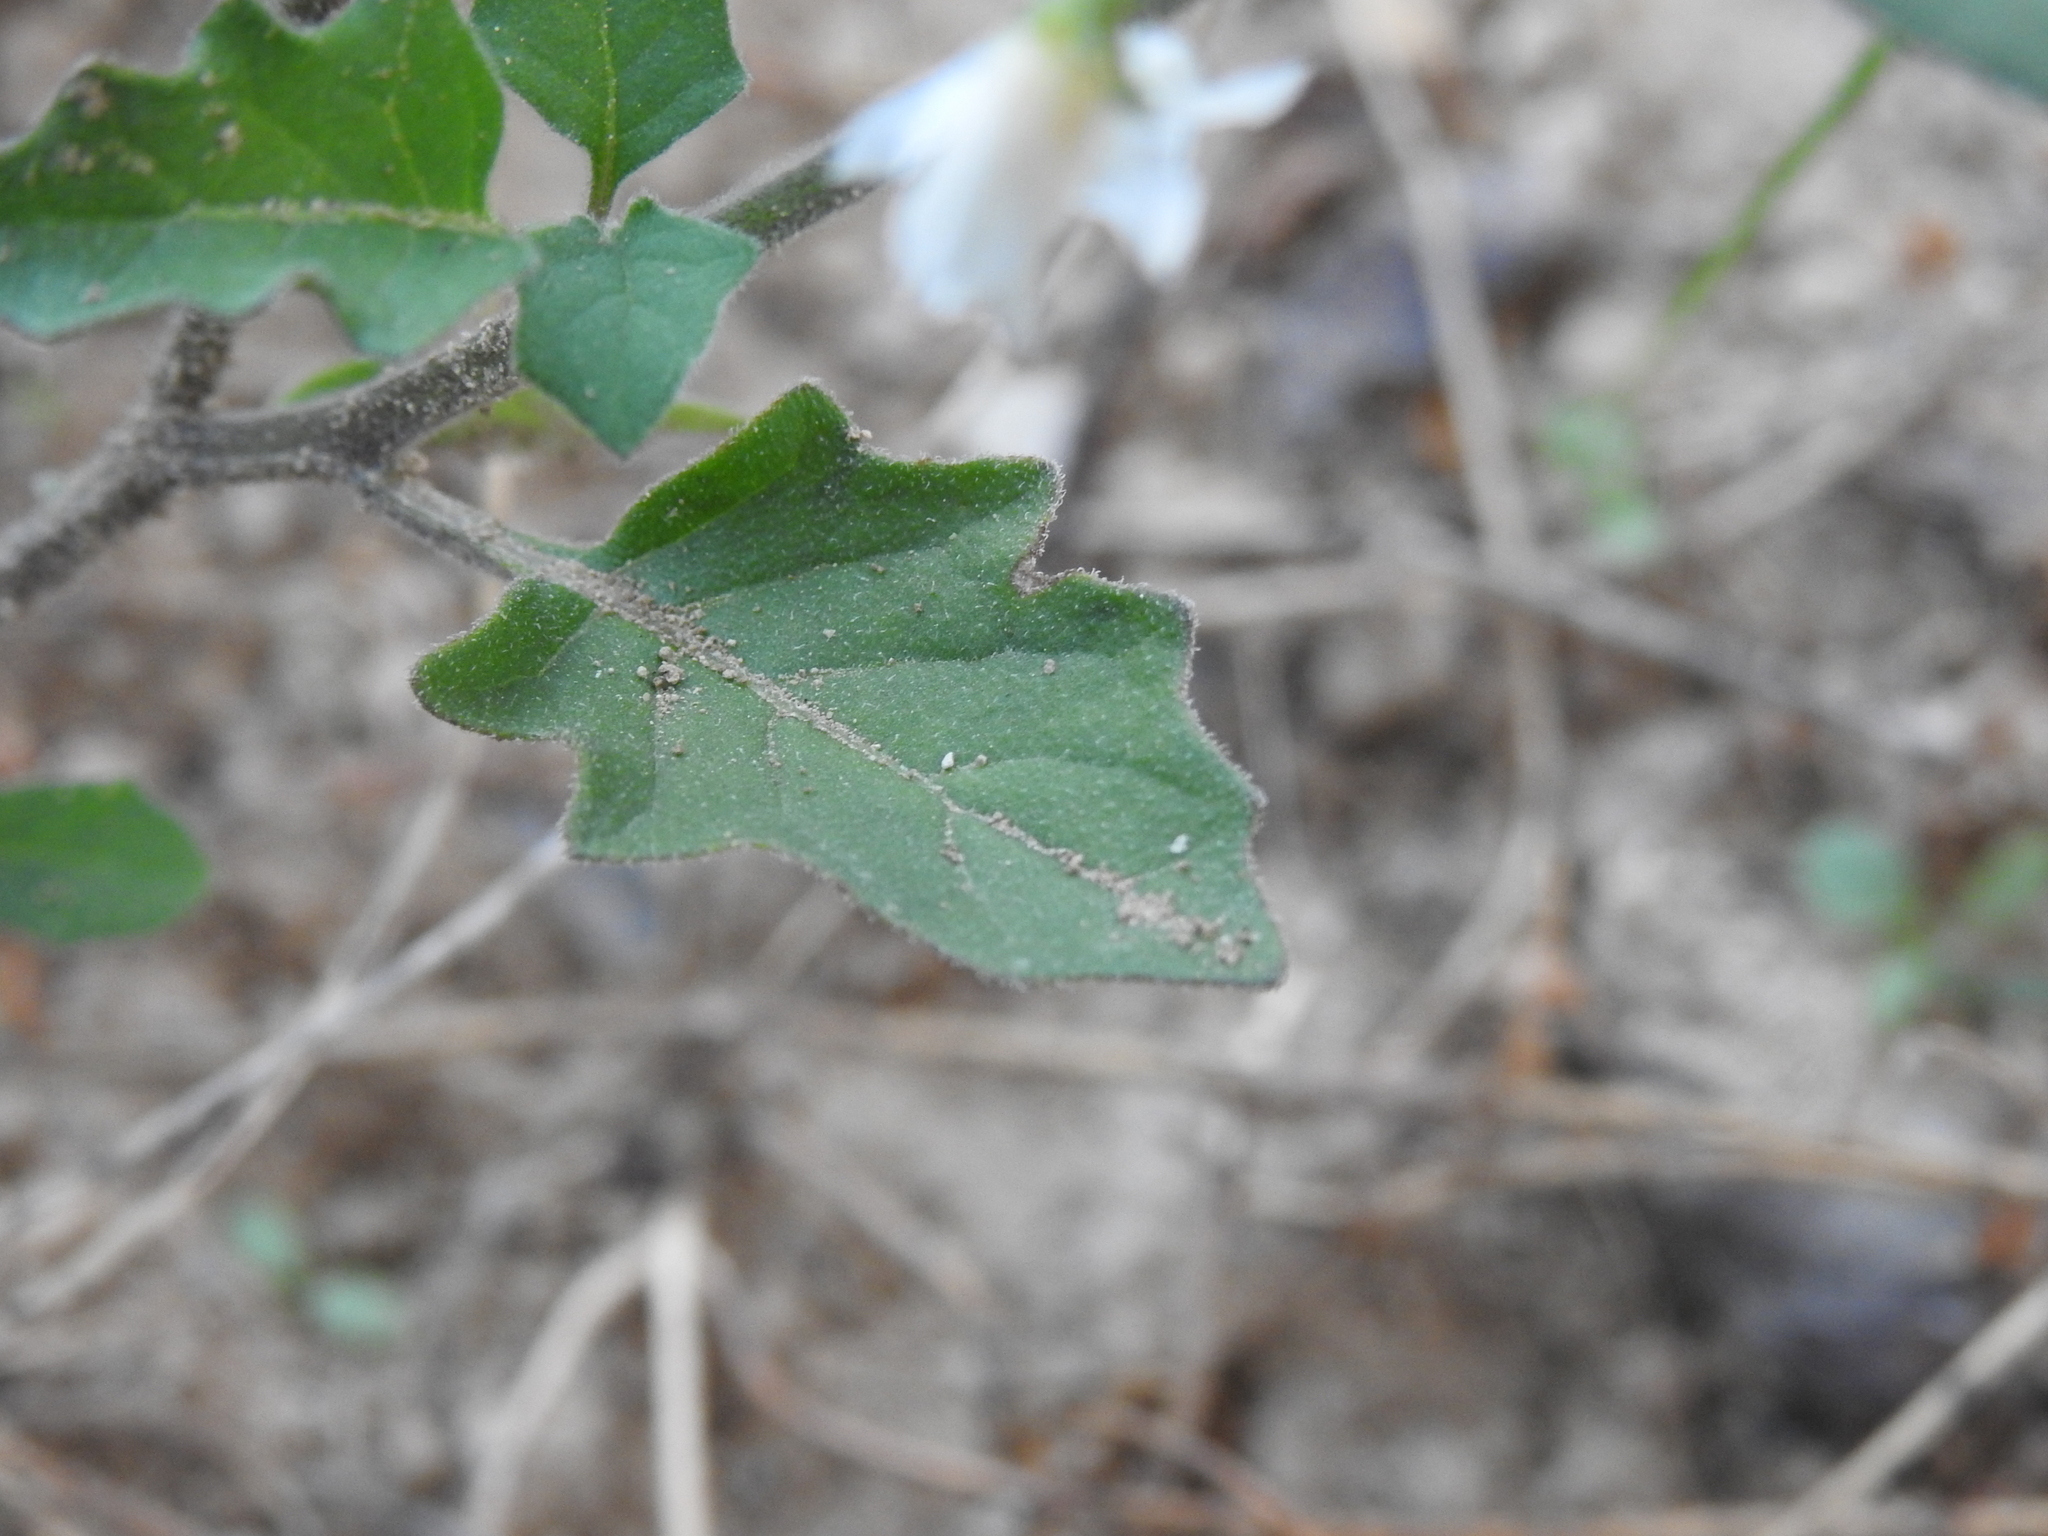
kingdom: Plantae
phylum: Tracheophyta
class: Magnoliopsida
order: Solanales
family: Solanaceae
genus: Solanum
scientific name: Solanum villosum
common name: Red nightshade
